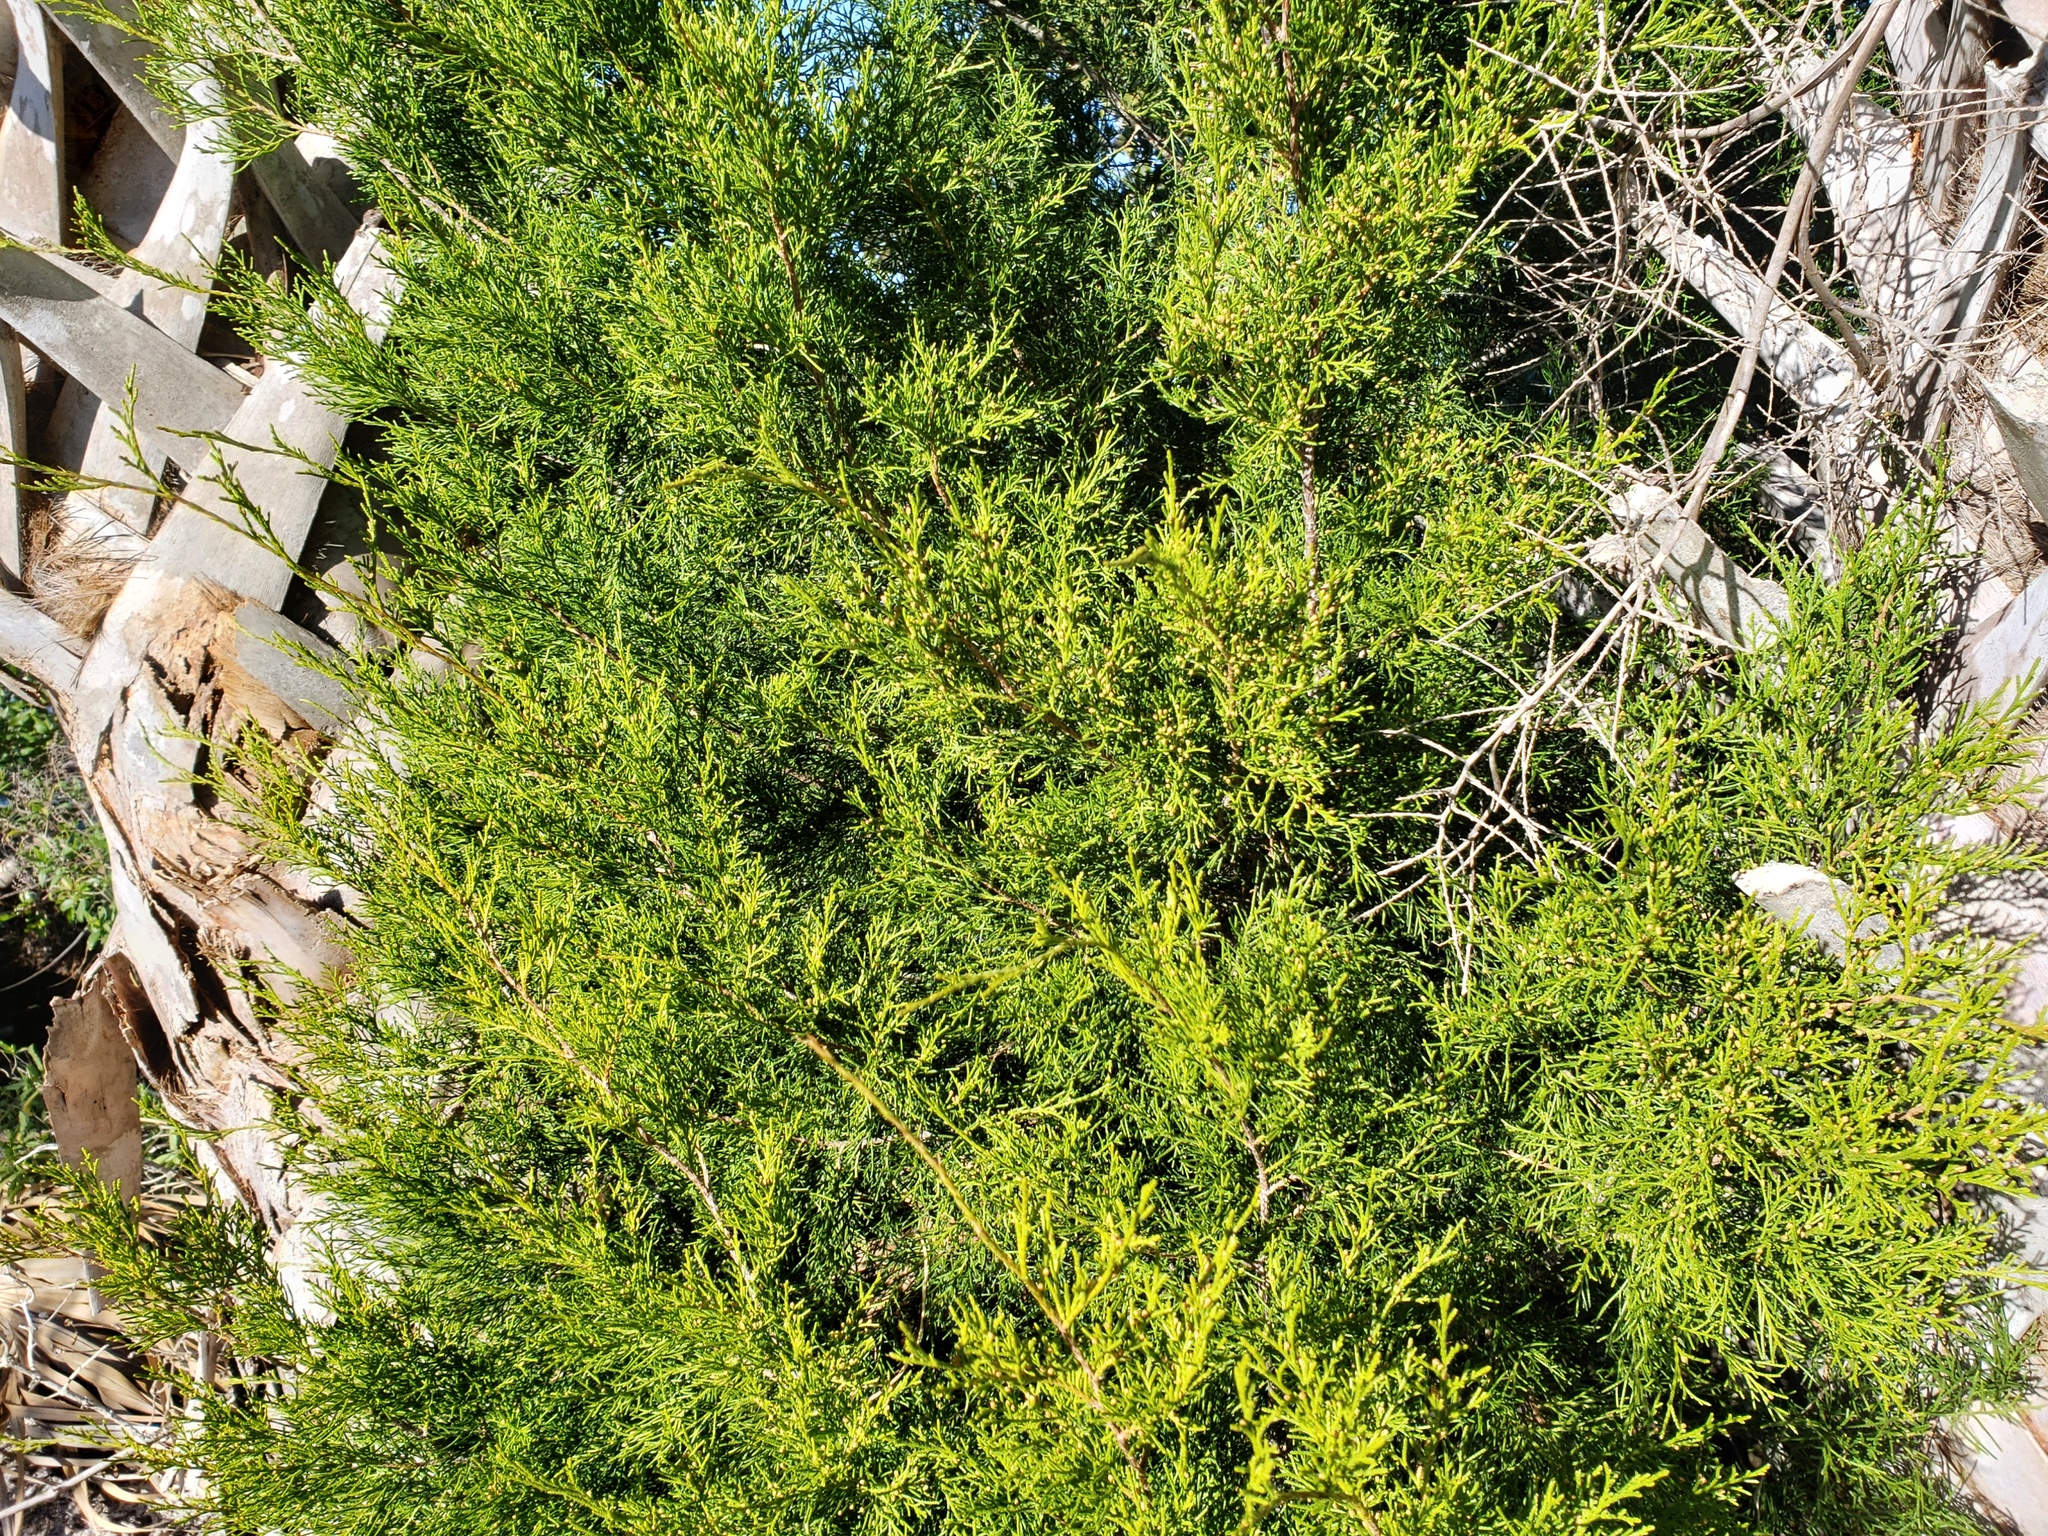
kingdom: Plantae
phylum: Tracheophyta
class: Pinopsida
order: Pinales
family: Cupressaceae
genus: Juniperus
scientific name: Juniperus virginiana
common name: Red juniper
